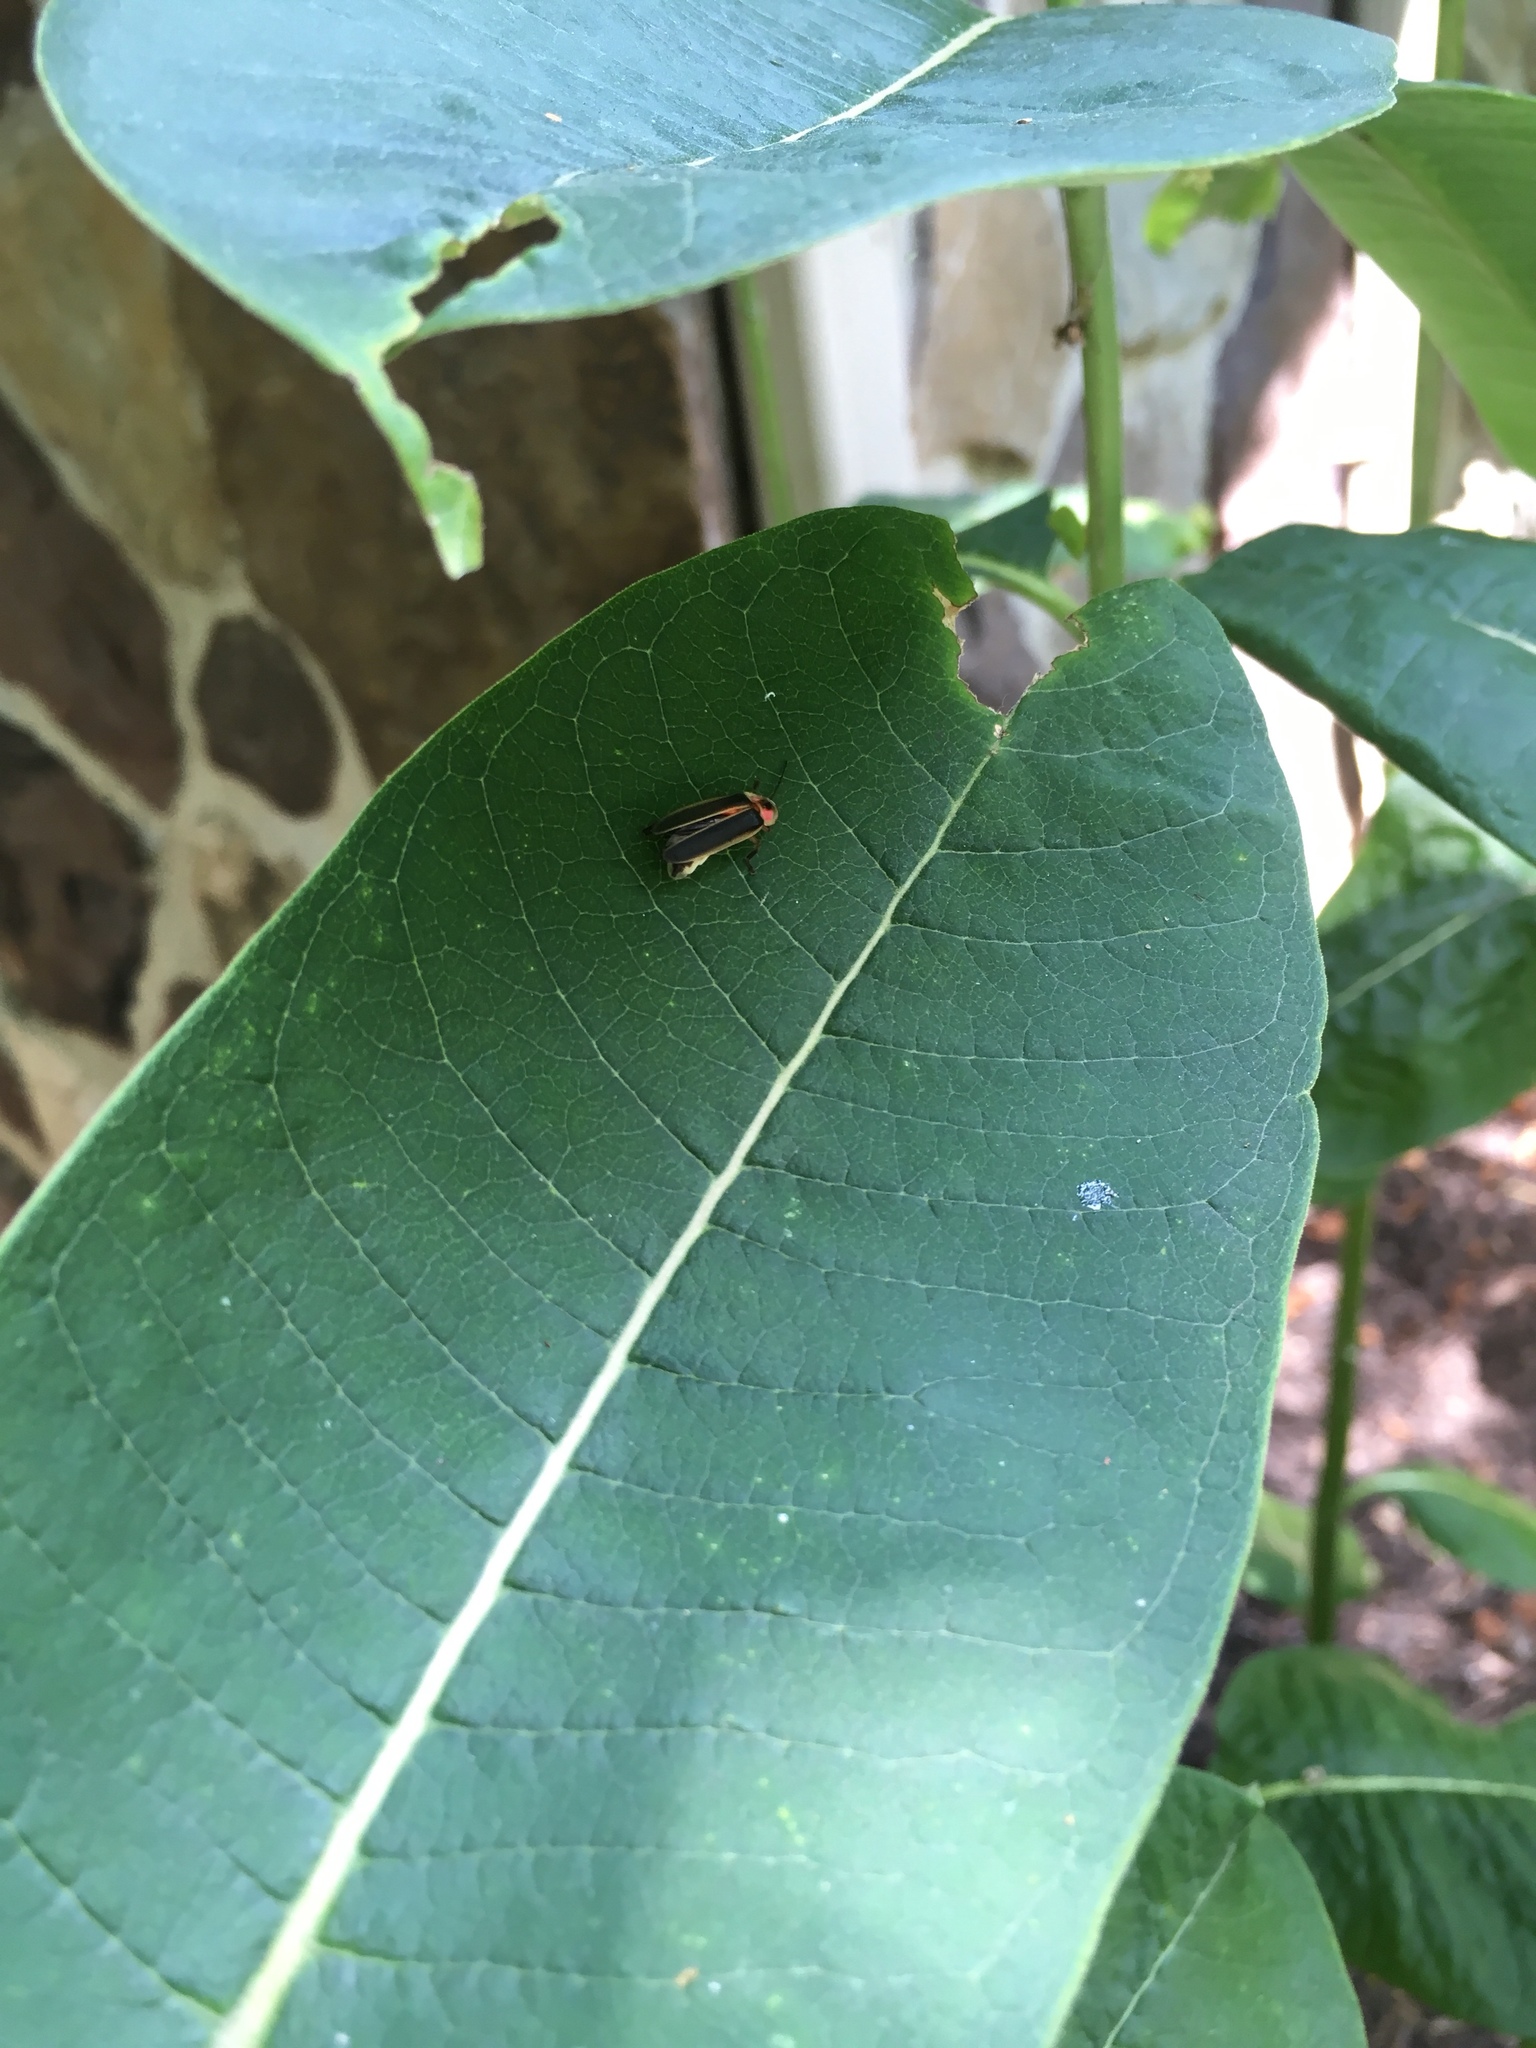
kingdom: Animalia
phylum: Arthropoda
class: Insecta
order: Coleoptera
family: Lampyridae
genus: Photinus
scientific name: Photinus pyralis
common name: Big dipper firefly
